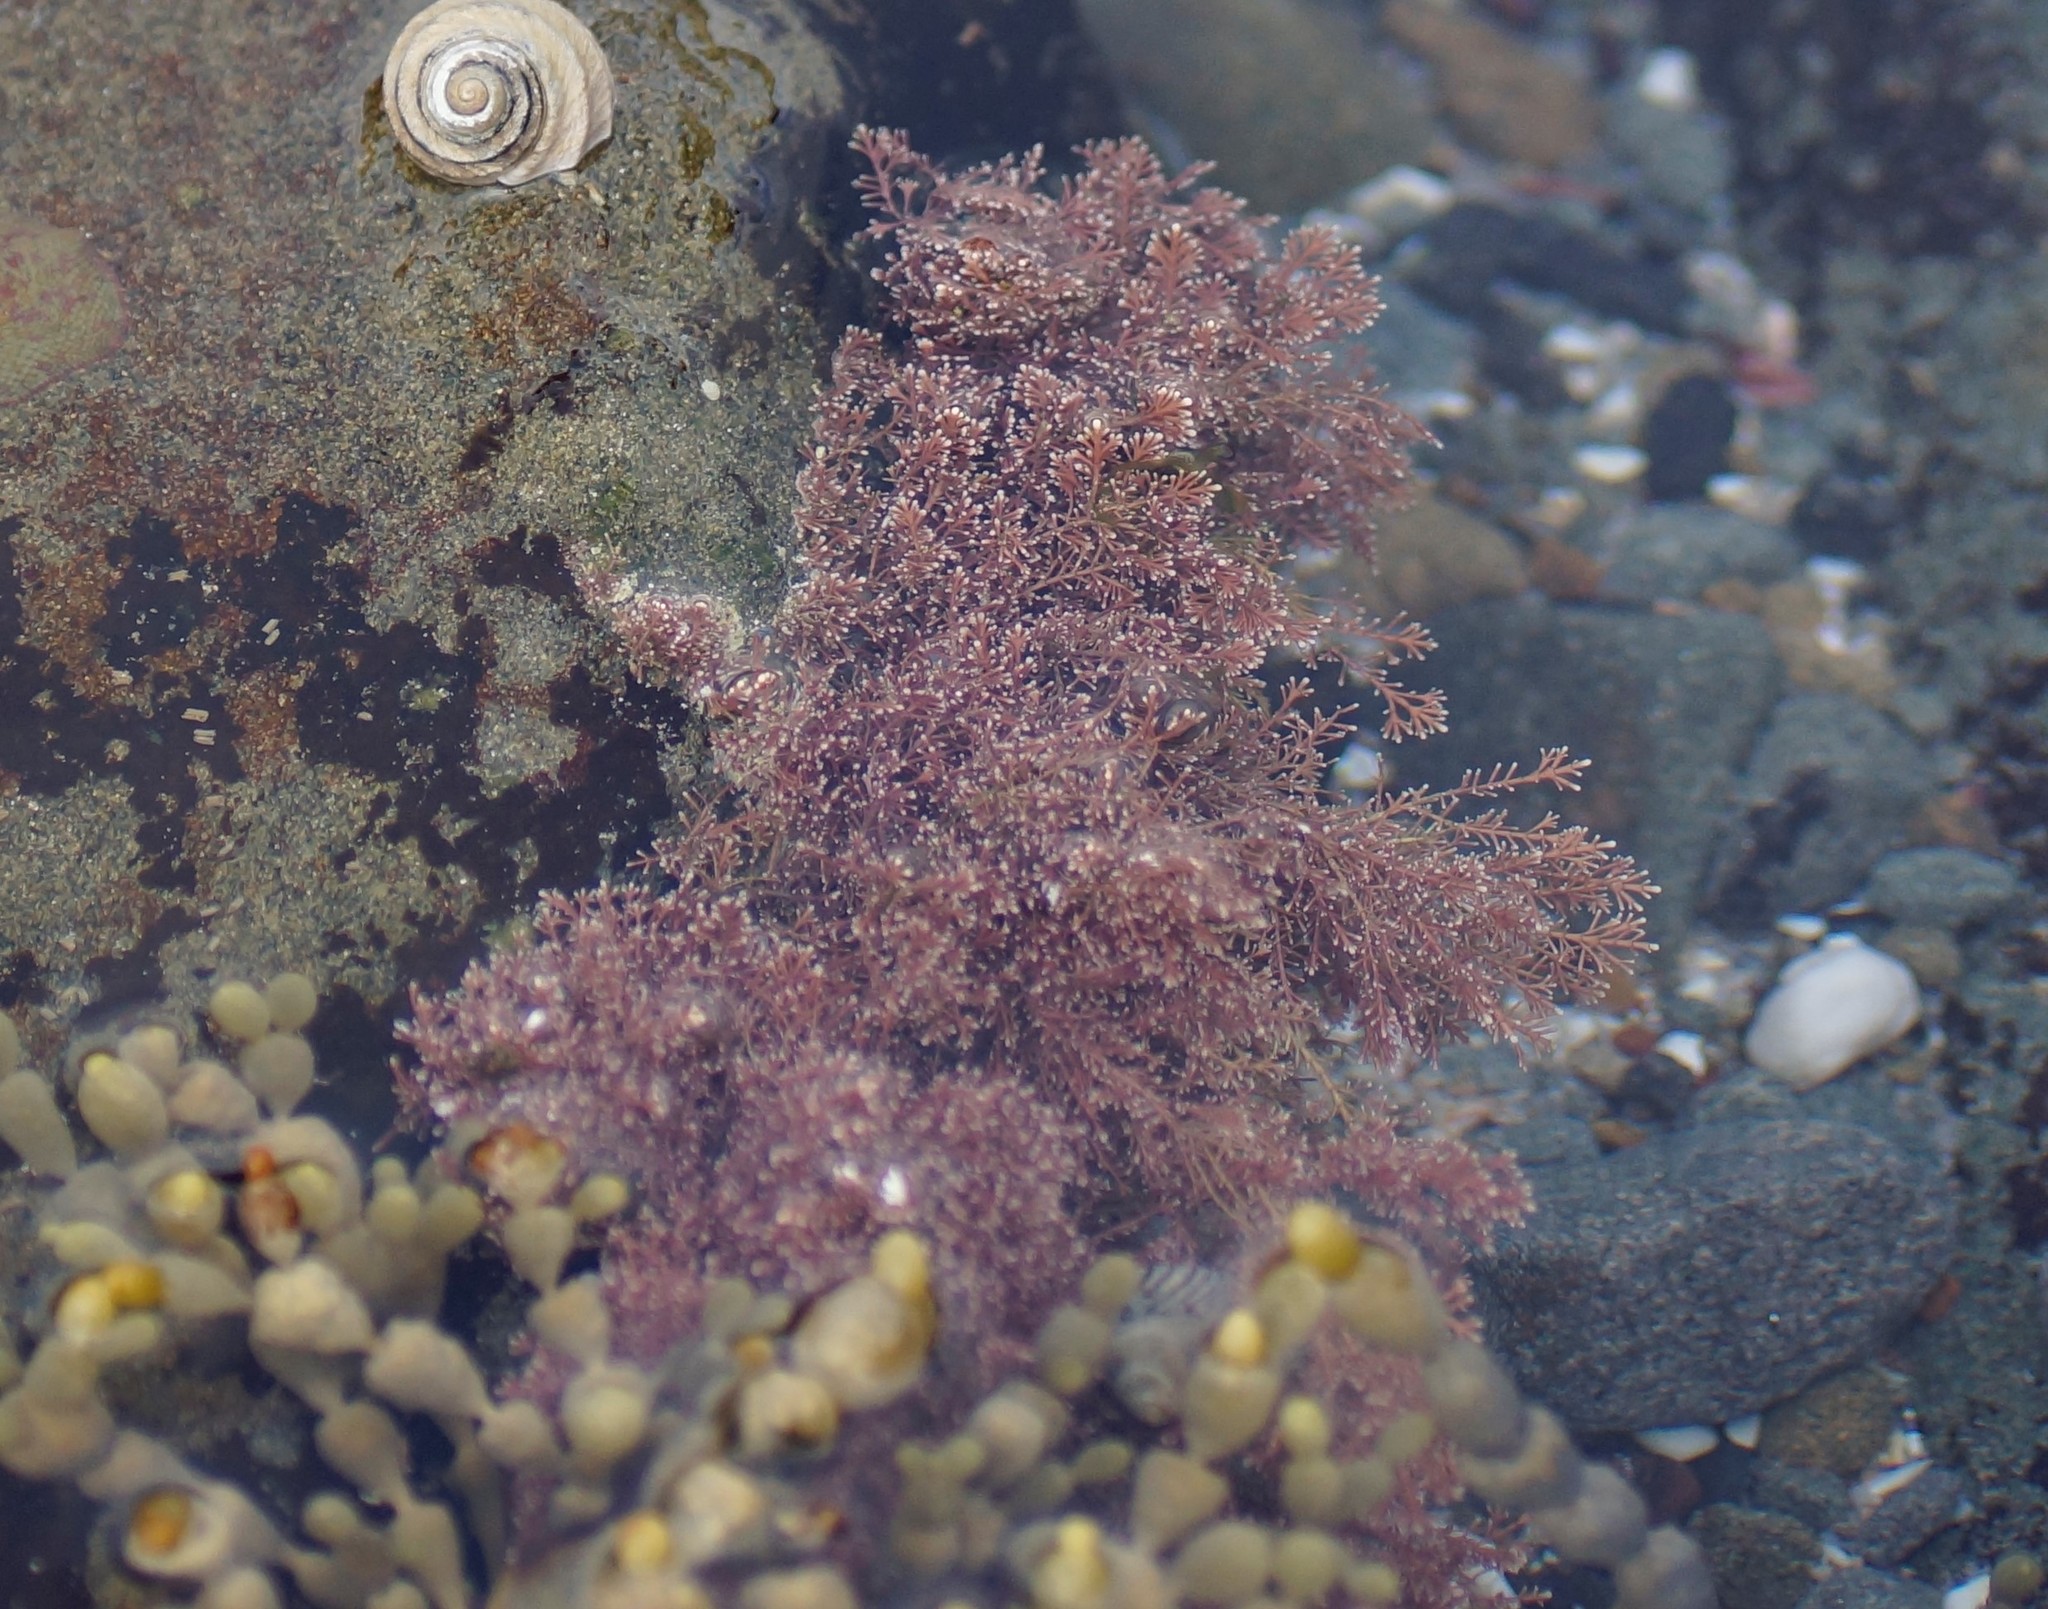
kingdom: Plantae
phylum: Rhodophyta
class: Florideophyceae
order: Corallinales
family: Corallinaceae
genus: Corallina
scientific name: Corallina officinalis
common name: Coral weed
